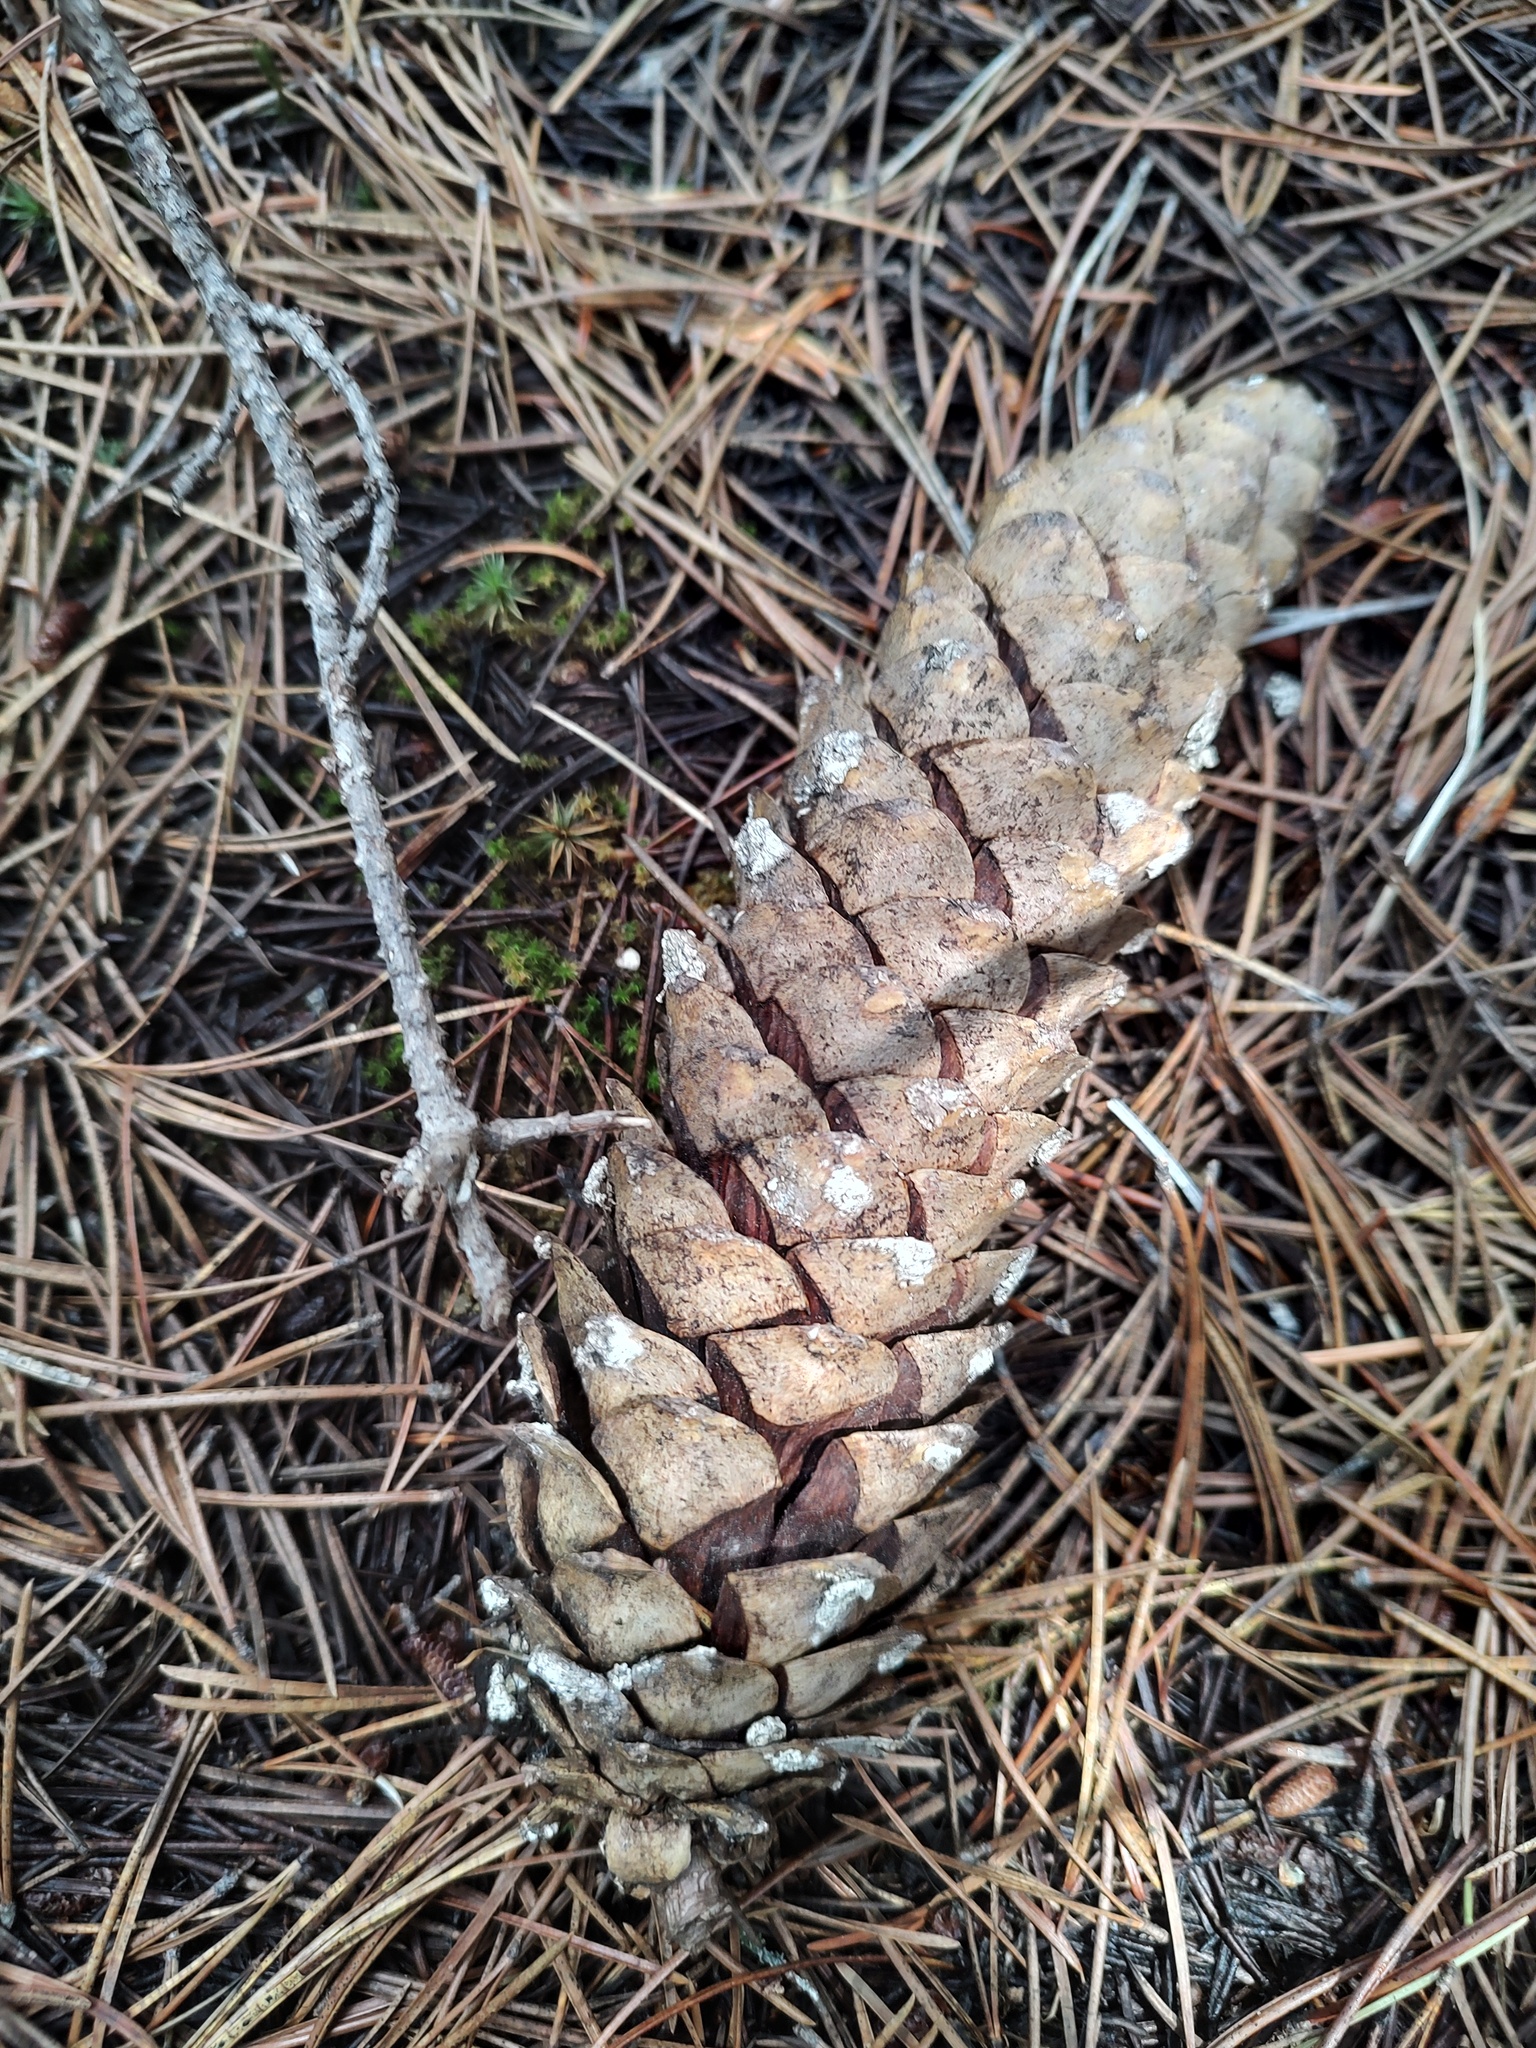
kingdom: Plantae
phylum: Tracheophyta
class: Pinopsida
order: Pinales
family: Pinaceae
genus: Pinus
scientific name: Pinus monticola
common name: Western white pine
